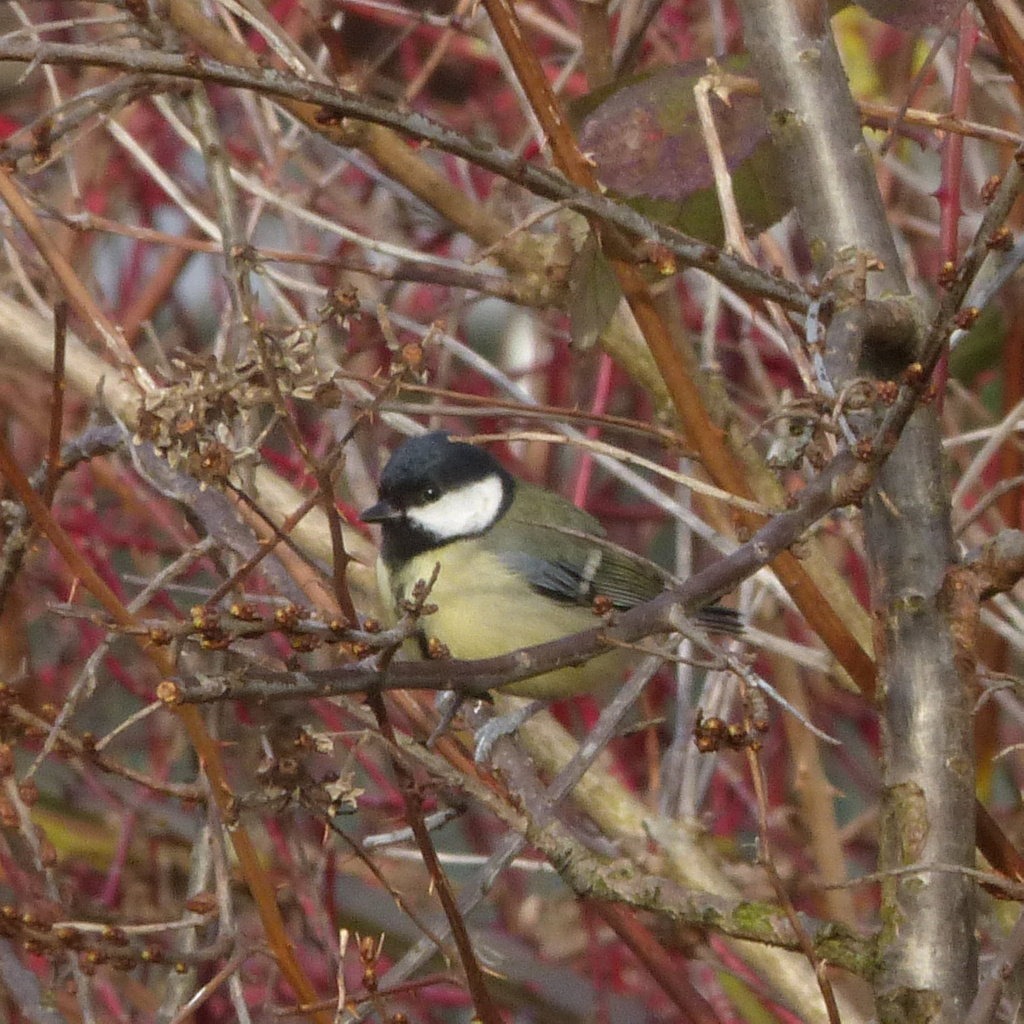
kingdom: Animalia
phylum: Chordata
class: Aves
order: Passeriformes
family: Paridae
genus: Parus
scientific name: Parus major
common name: Great tit
